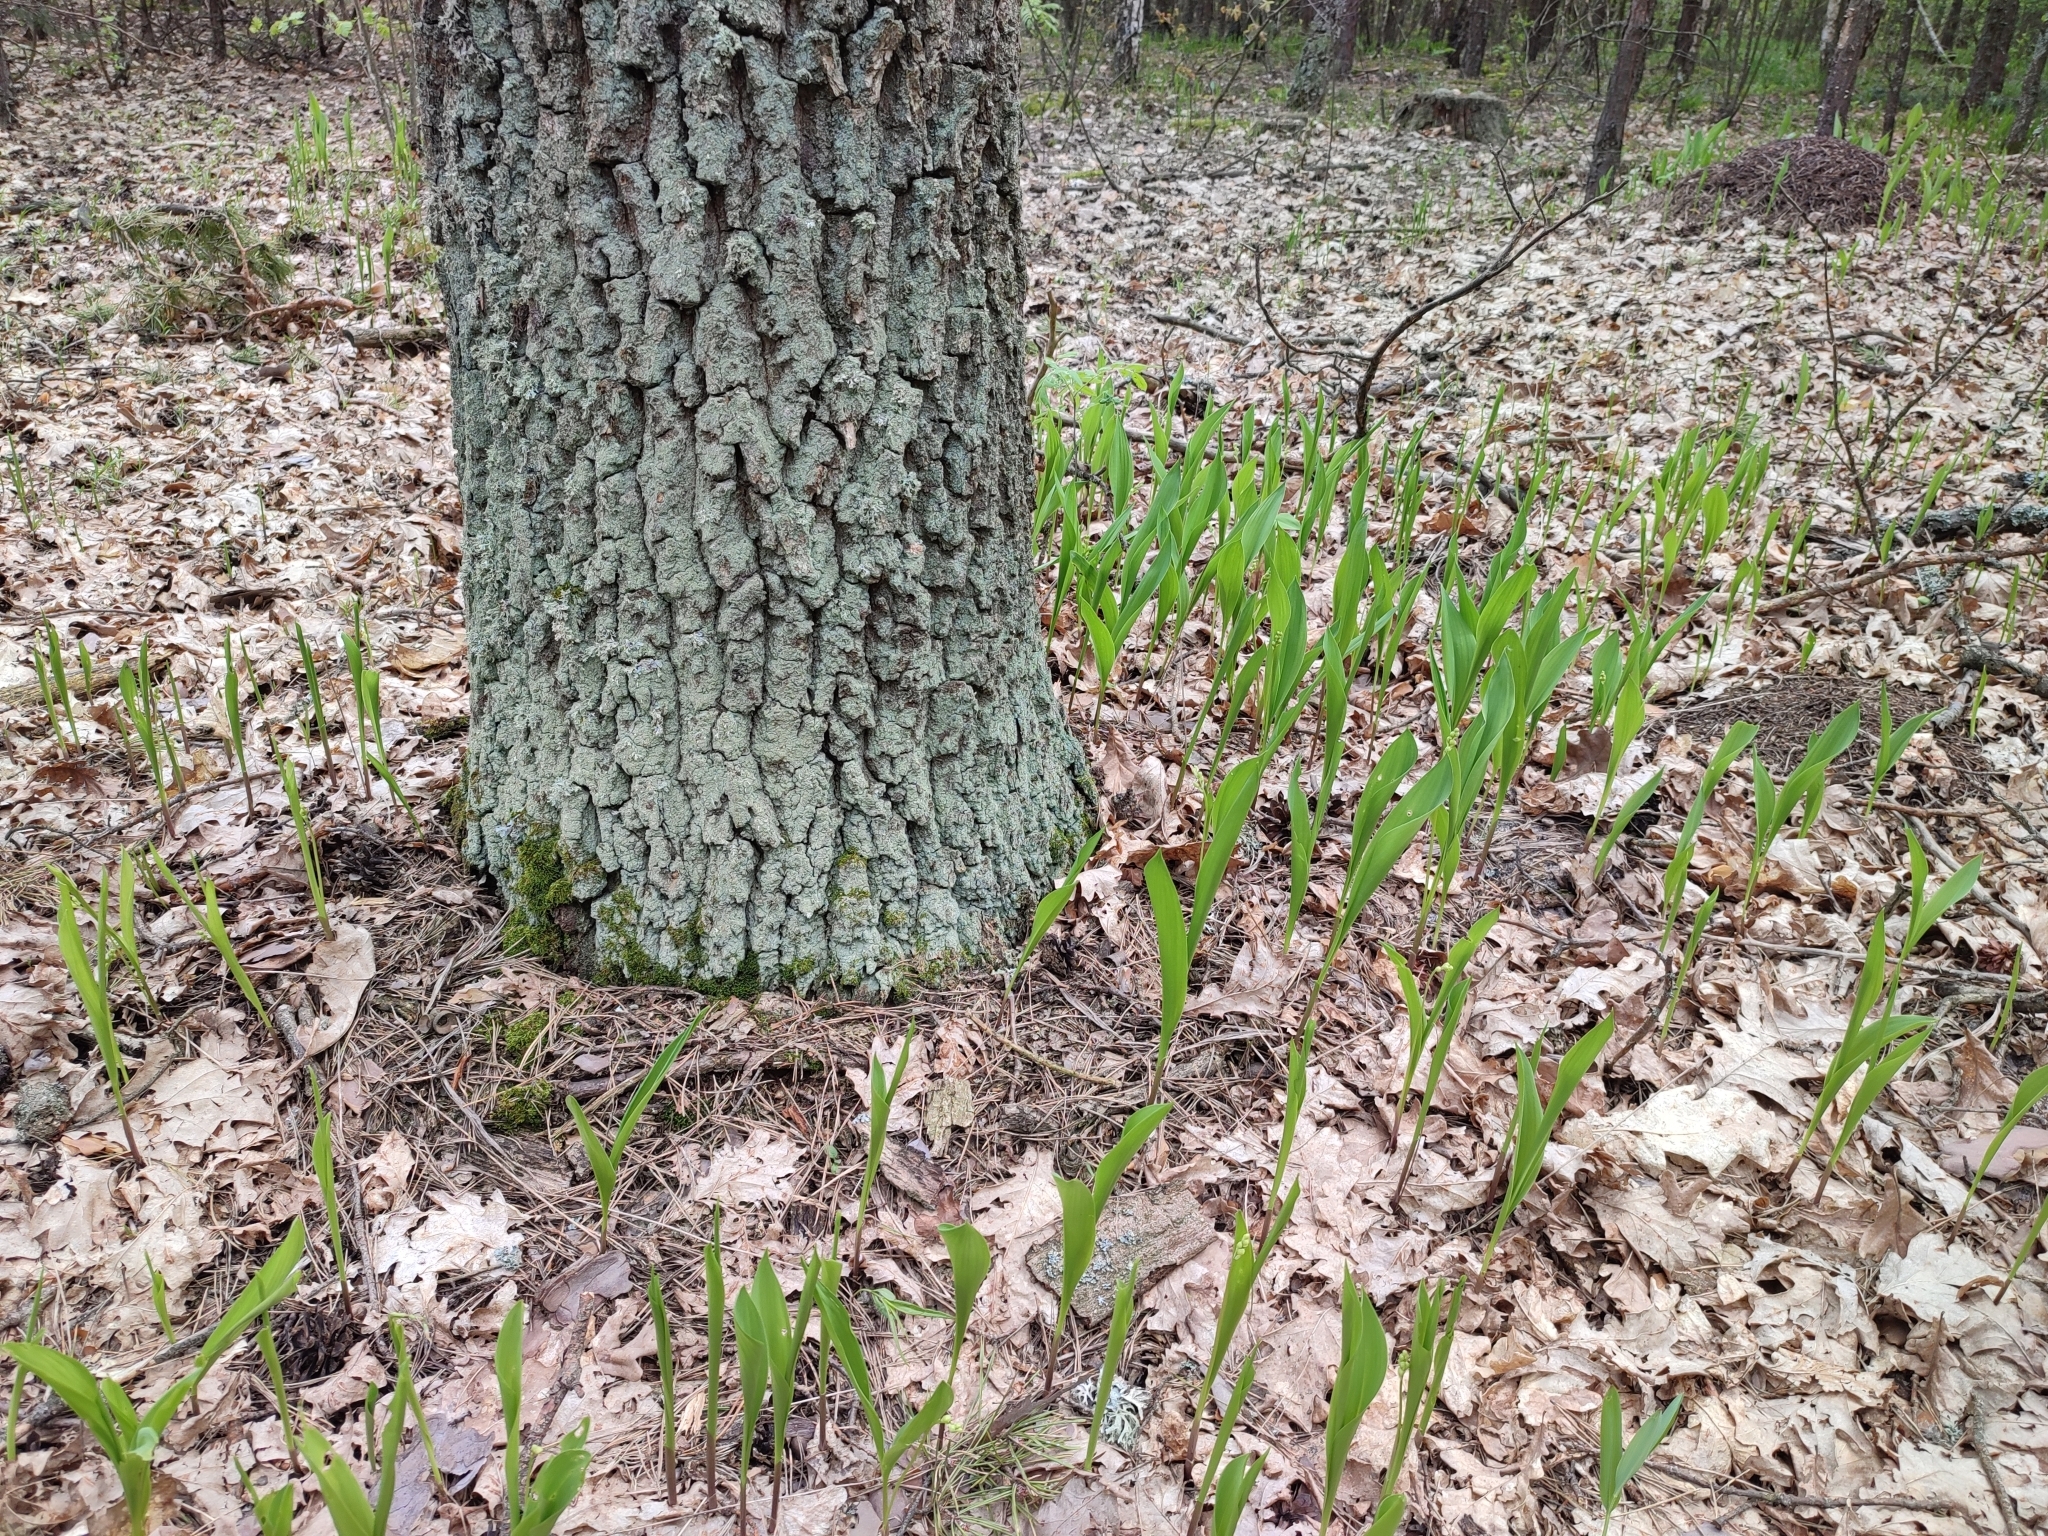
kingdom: Plantae
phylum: Tracheophyta
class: Liliopsida
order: Asparagales
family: Asparagaceae
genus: Convallaria
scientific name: Convallaria majalis
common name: Lily-of-the-valley
